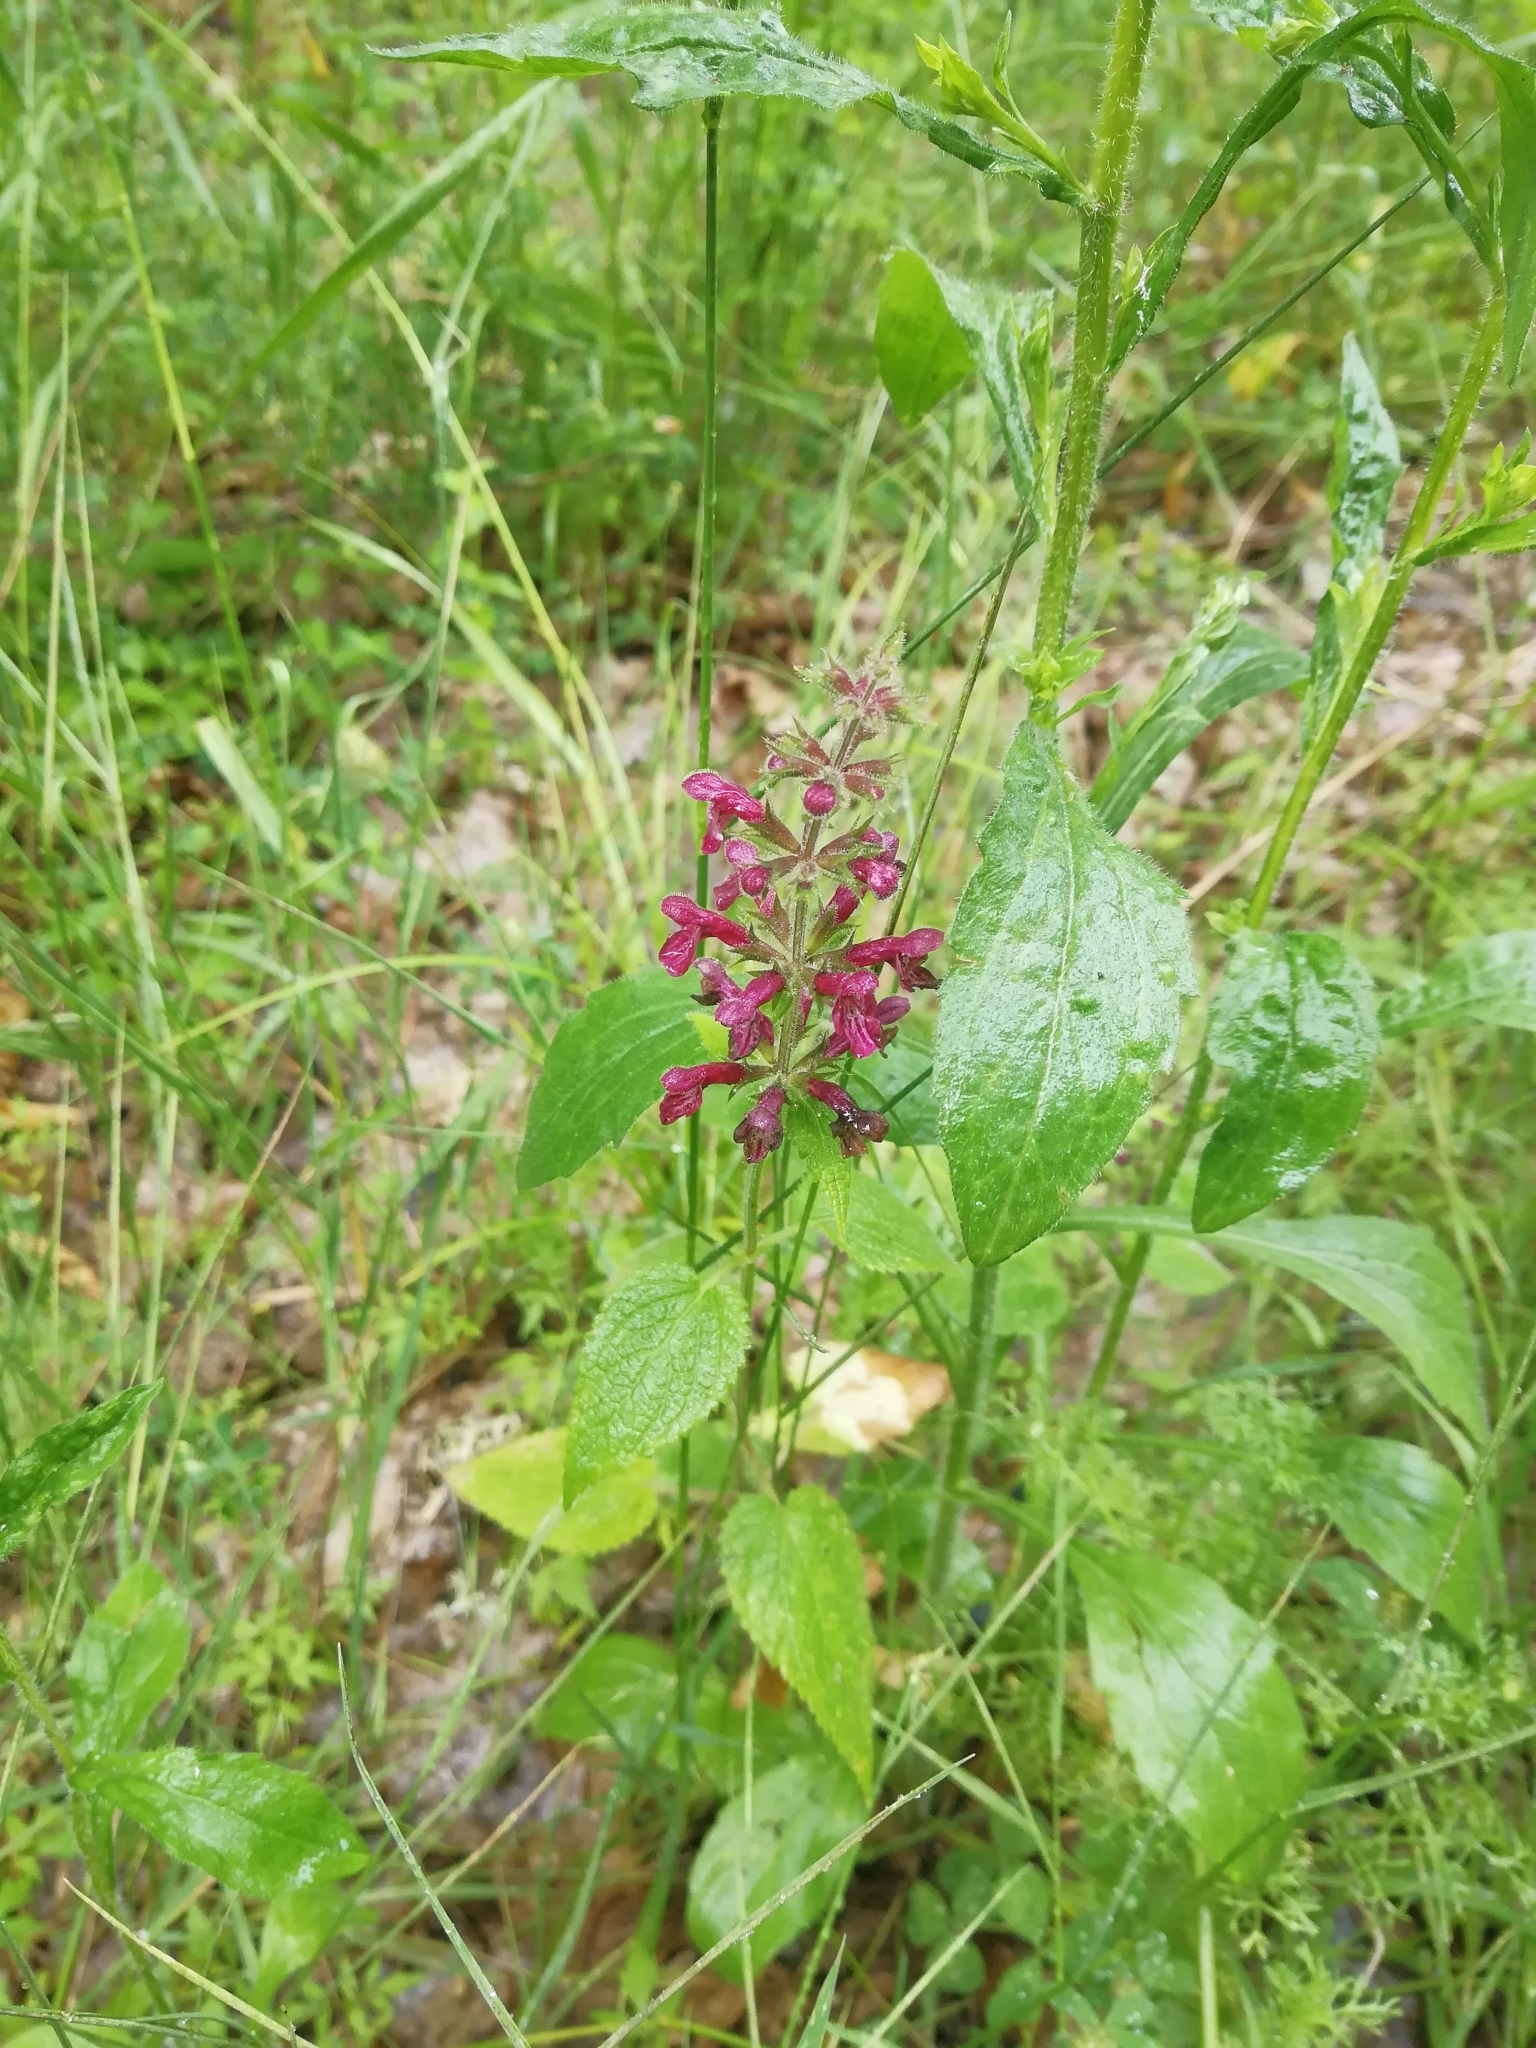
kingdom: Plantae
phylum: Tracheophyta
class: Magnoliopsida
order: Lamiales
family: Lamiaceae
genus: Stachys
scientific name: Stachys sylvatica
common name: Hedge woundwort
